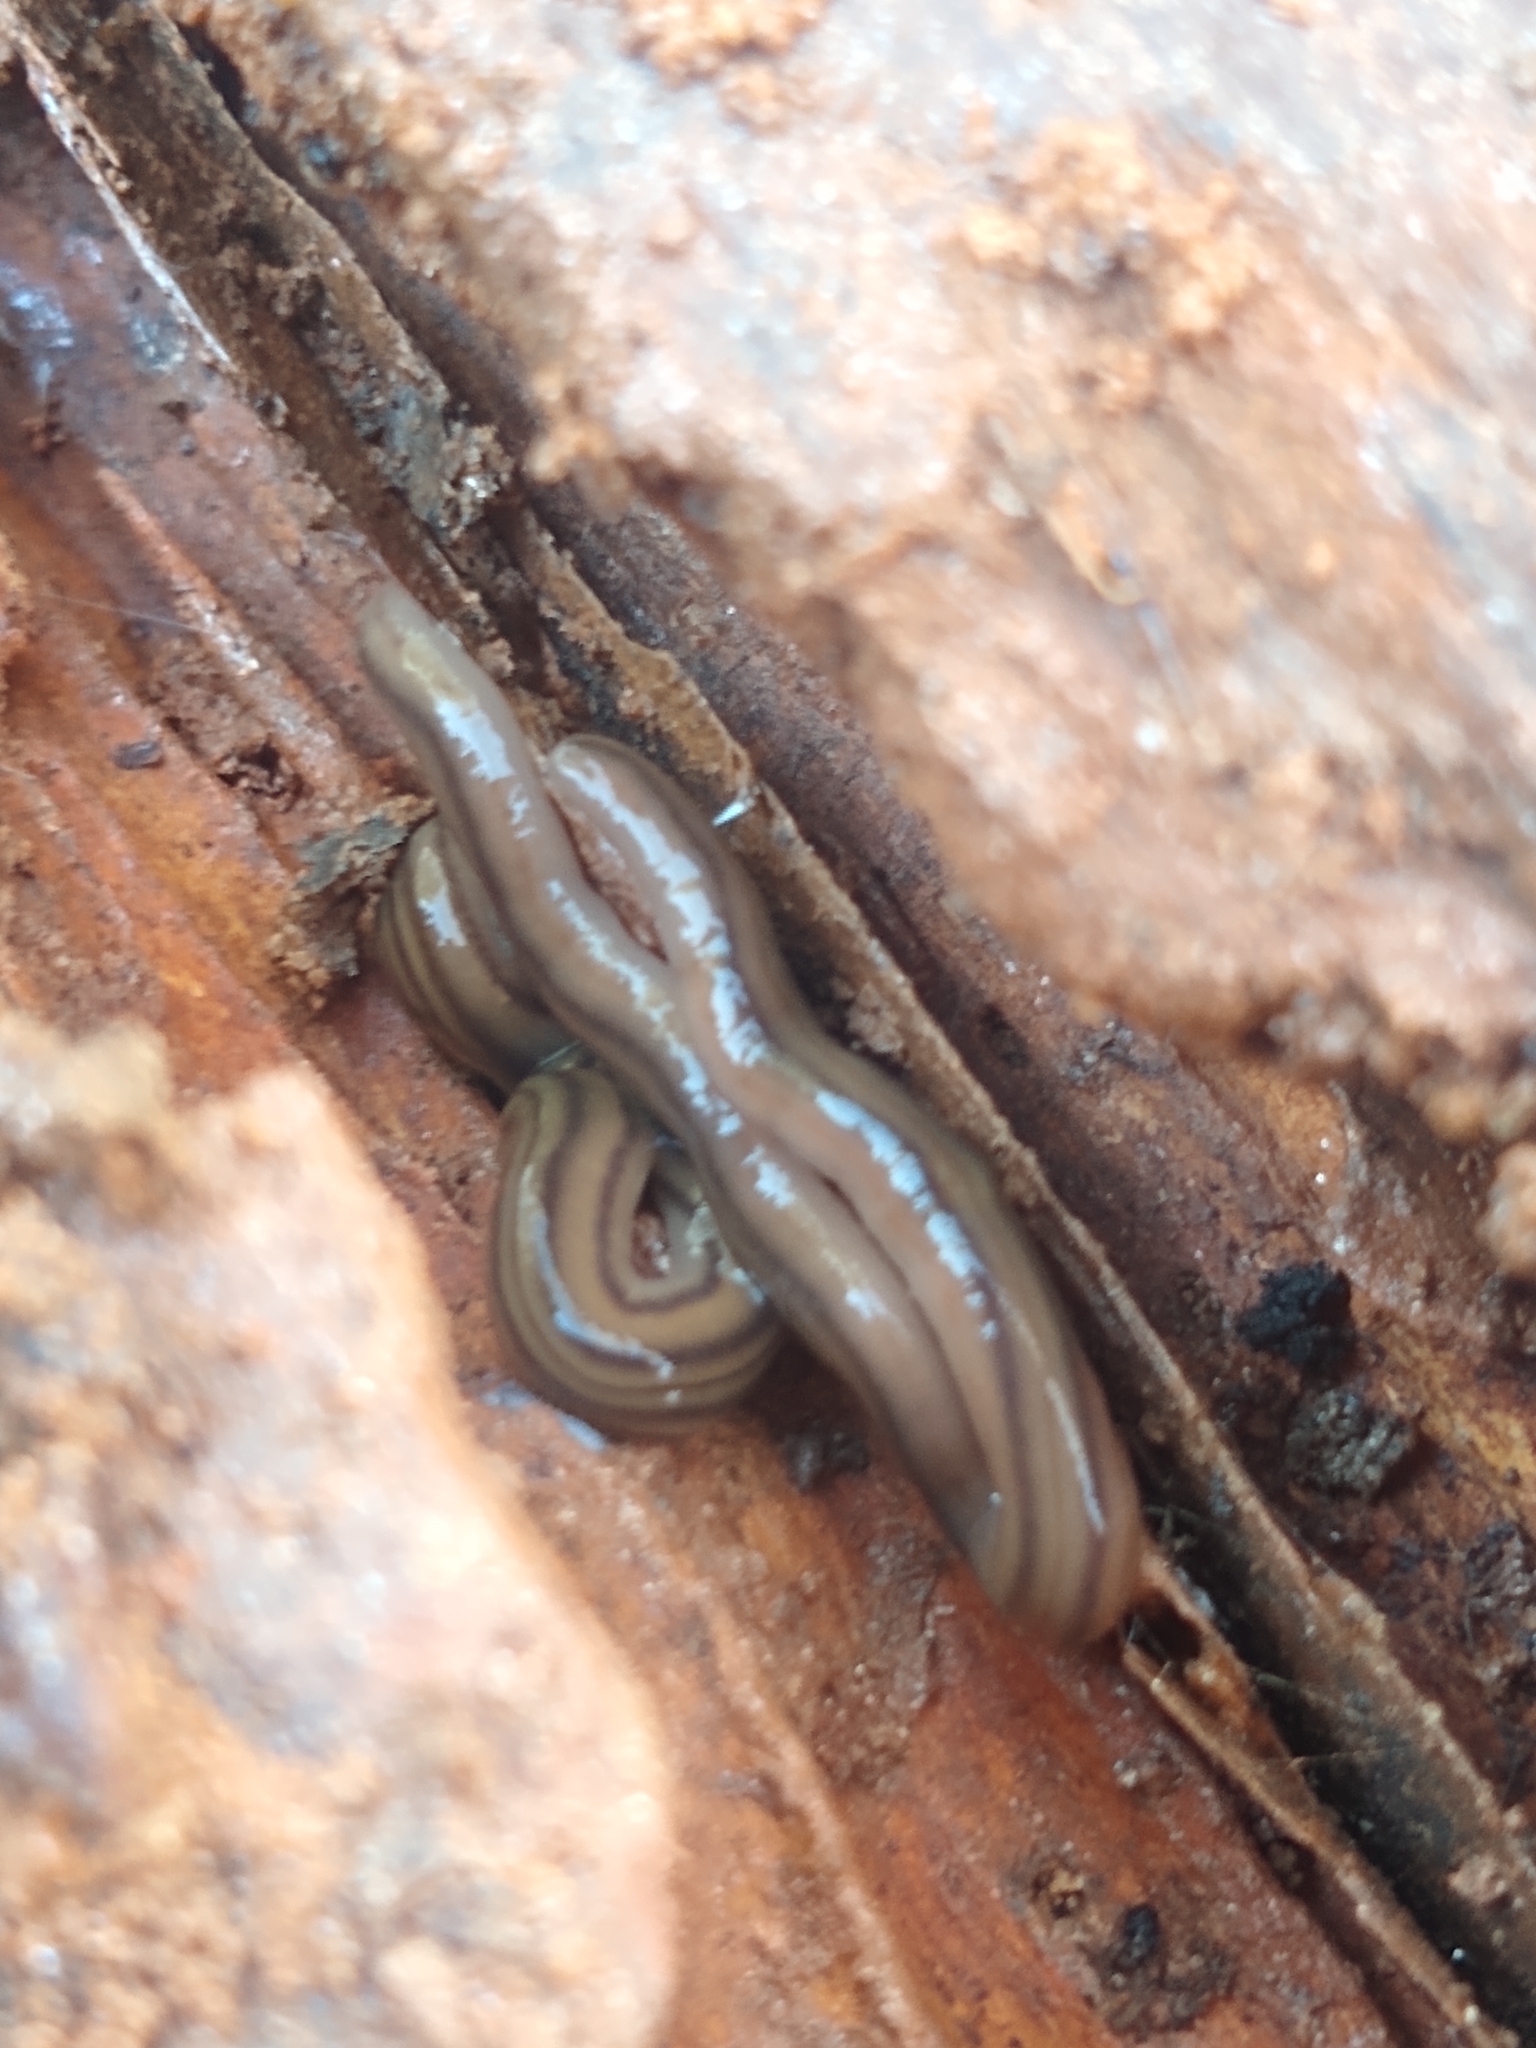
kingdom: Animalia
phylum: Platyhelminthes
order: Tricladida
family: Geoplanidae
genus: Bipalium
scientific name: Bipalium kewense
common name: Hammerhead flatworm
